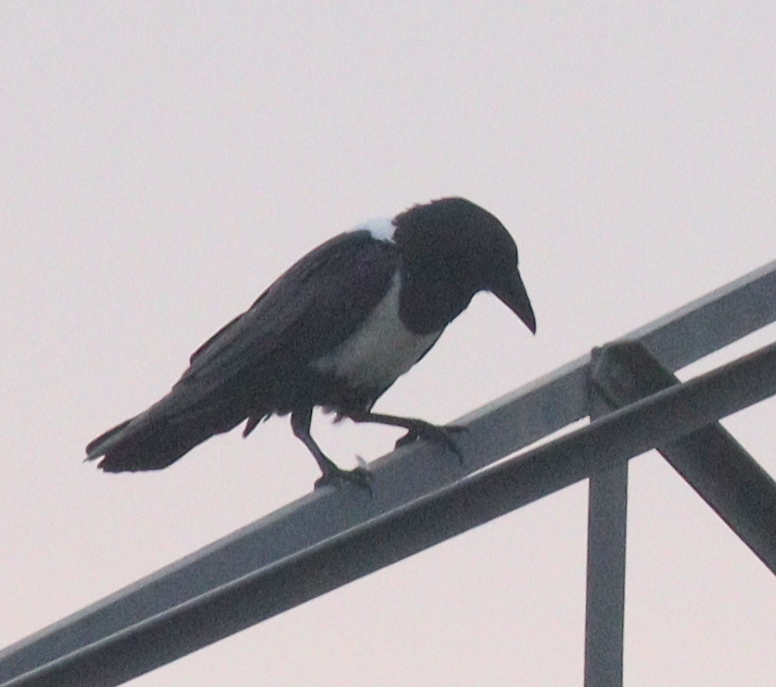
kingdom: Animalia
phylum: Chordata
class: Aves
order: Passeriformes
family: Corvidae
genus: Corvus
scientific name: Corvus albus
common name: Pied crow
